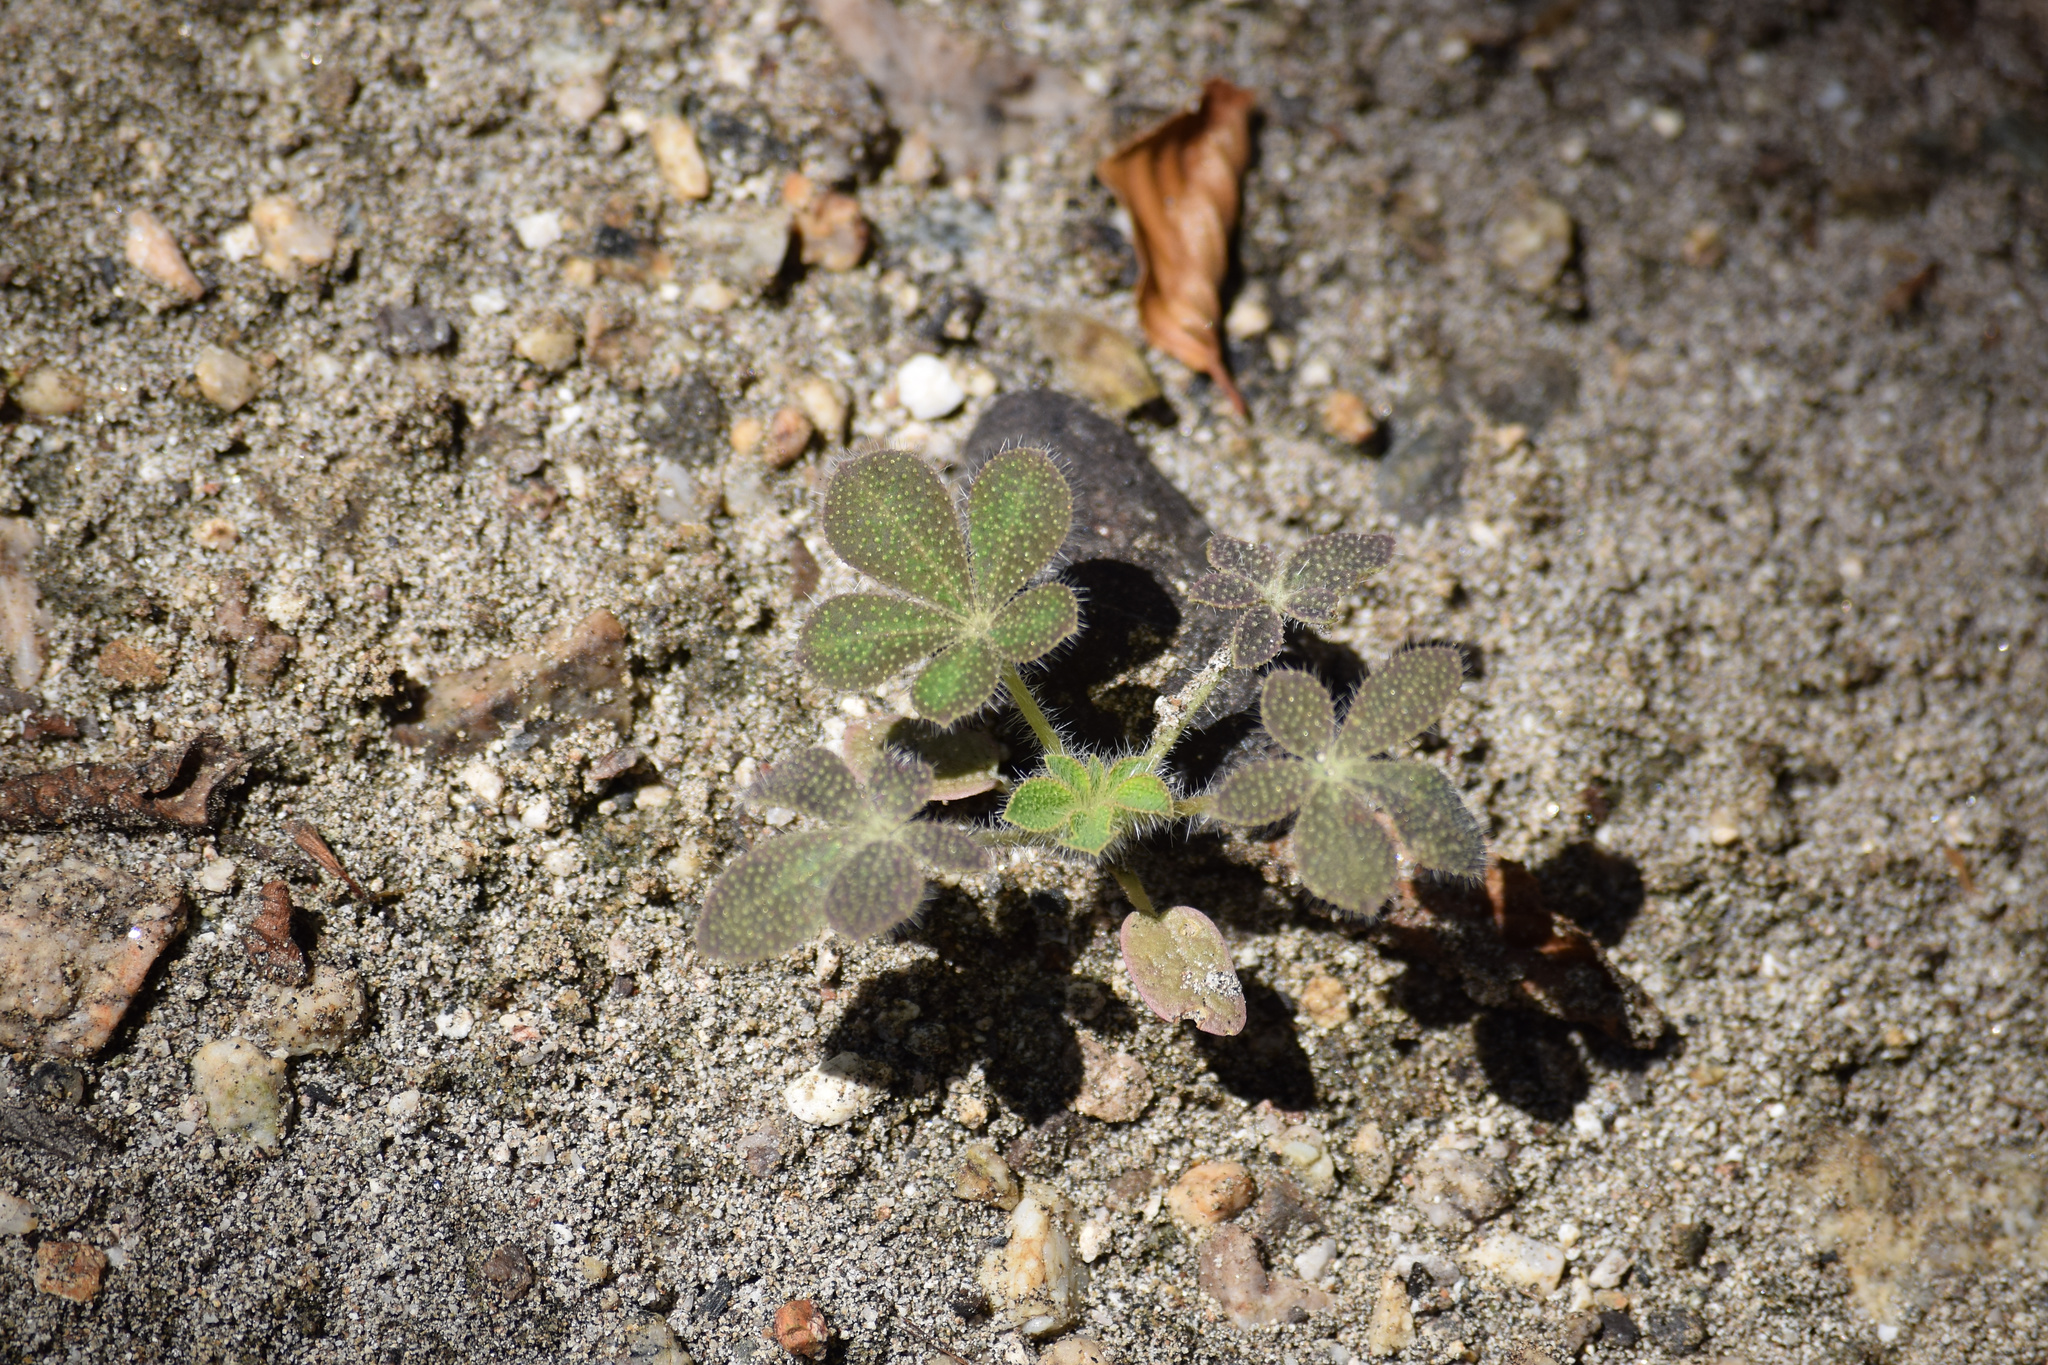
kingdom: Plantae
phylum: Tracheophyta
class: Magnoliopsida
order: Fabales
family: Fabaceae
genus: Lupinus
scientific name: Lupinus hirsutissimus
